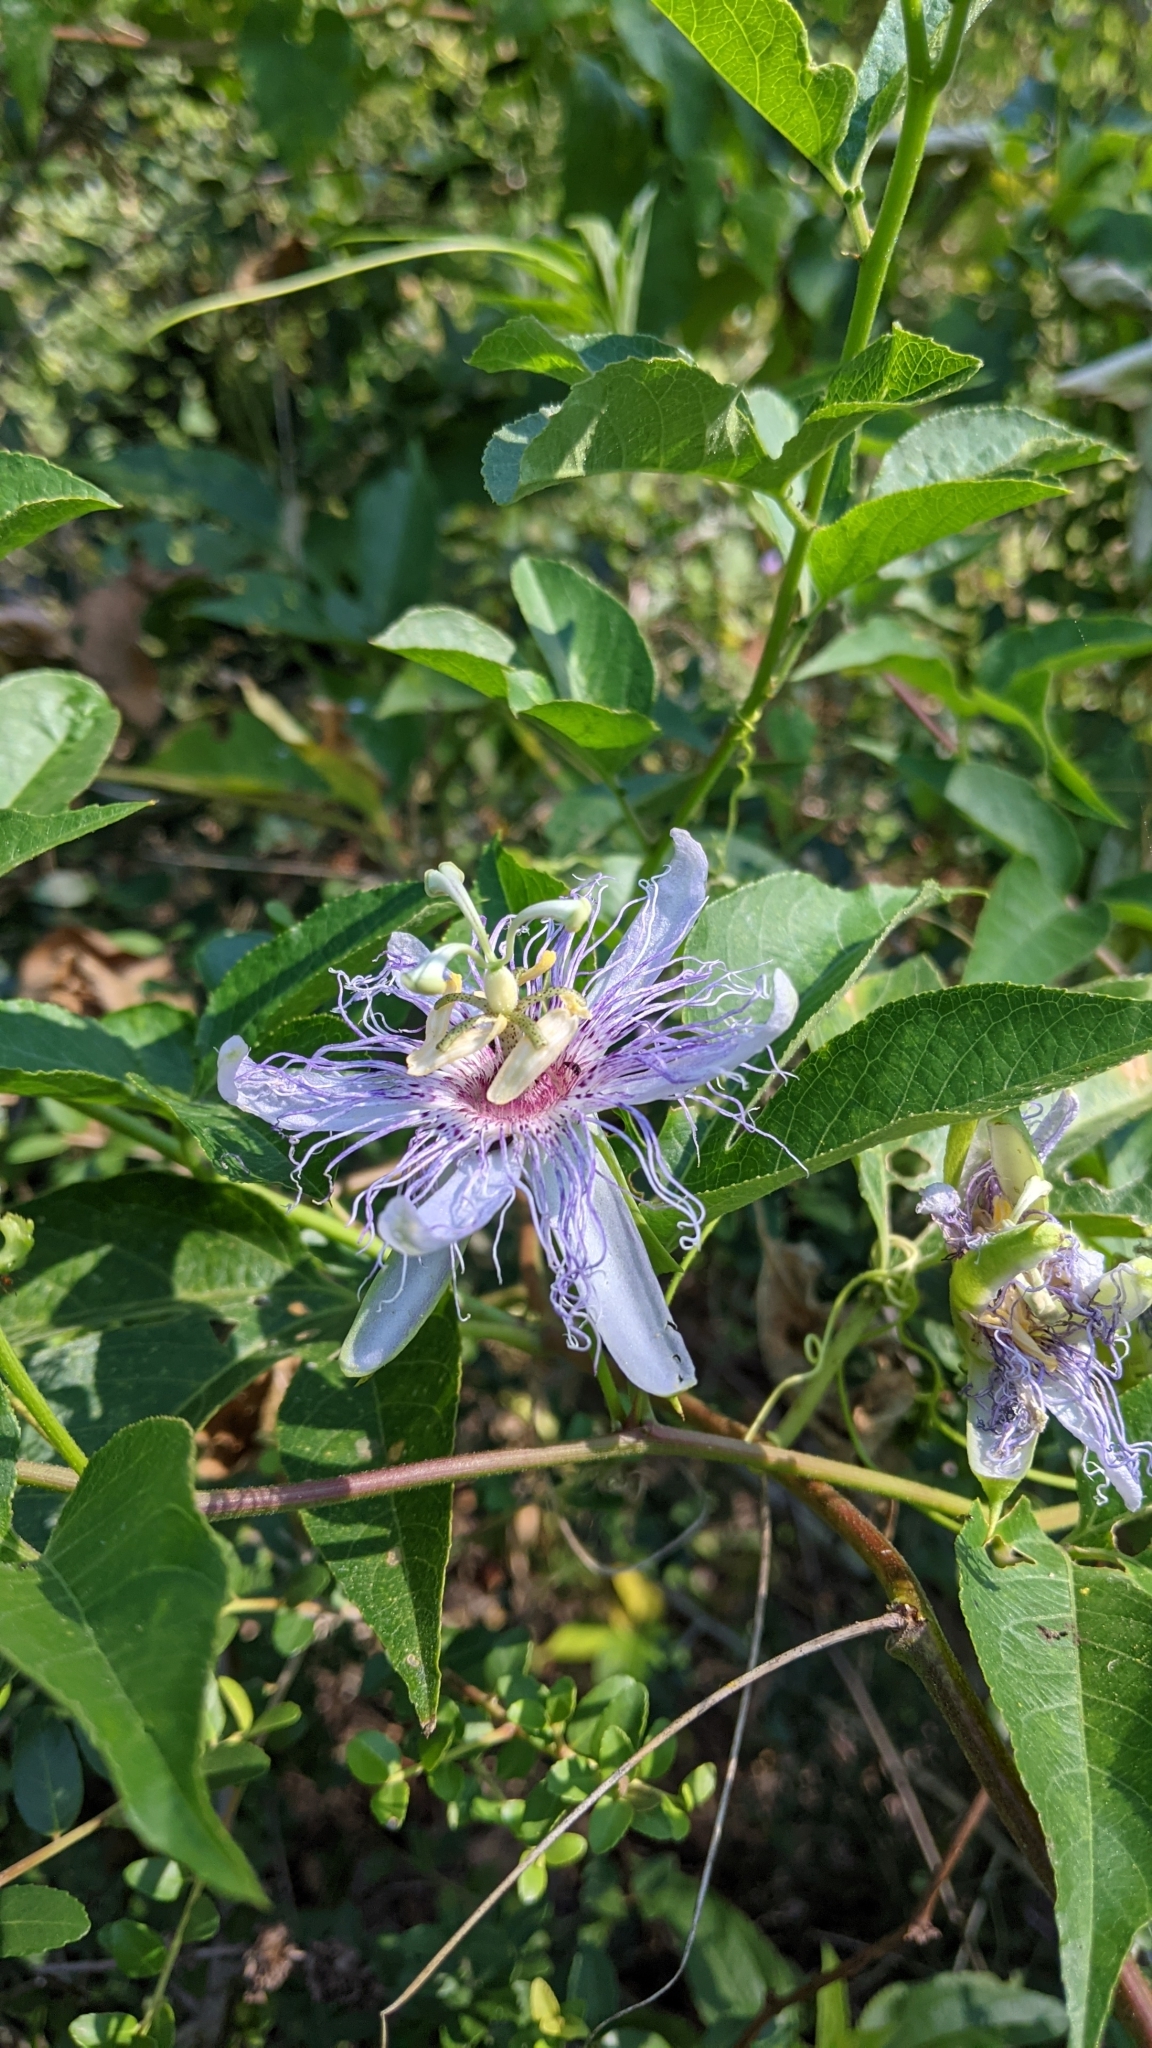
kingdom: Plantae
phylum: Tracheophyta
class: Magnoliopsida
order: Malpighiales
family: Passifloraceae
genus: Passiflora
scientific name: Passiflora incarnata
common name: Apricot-vine
